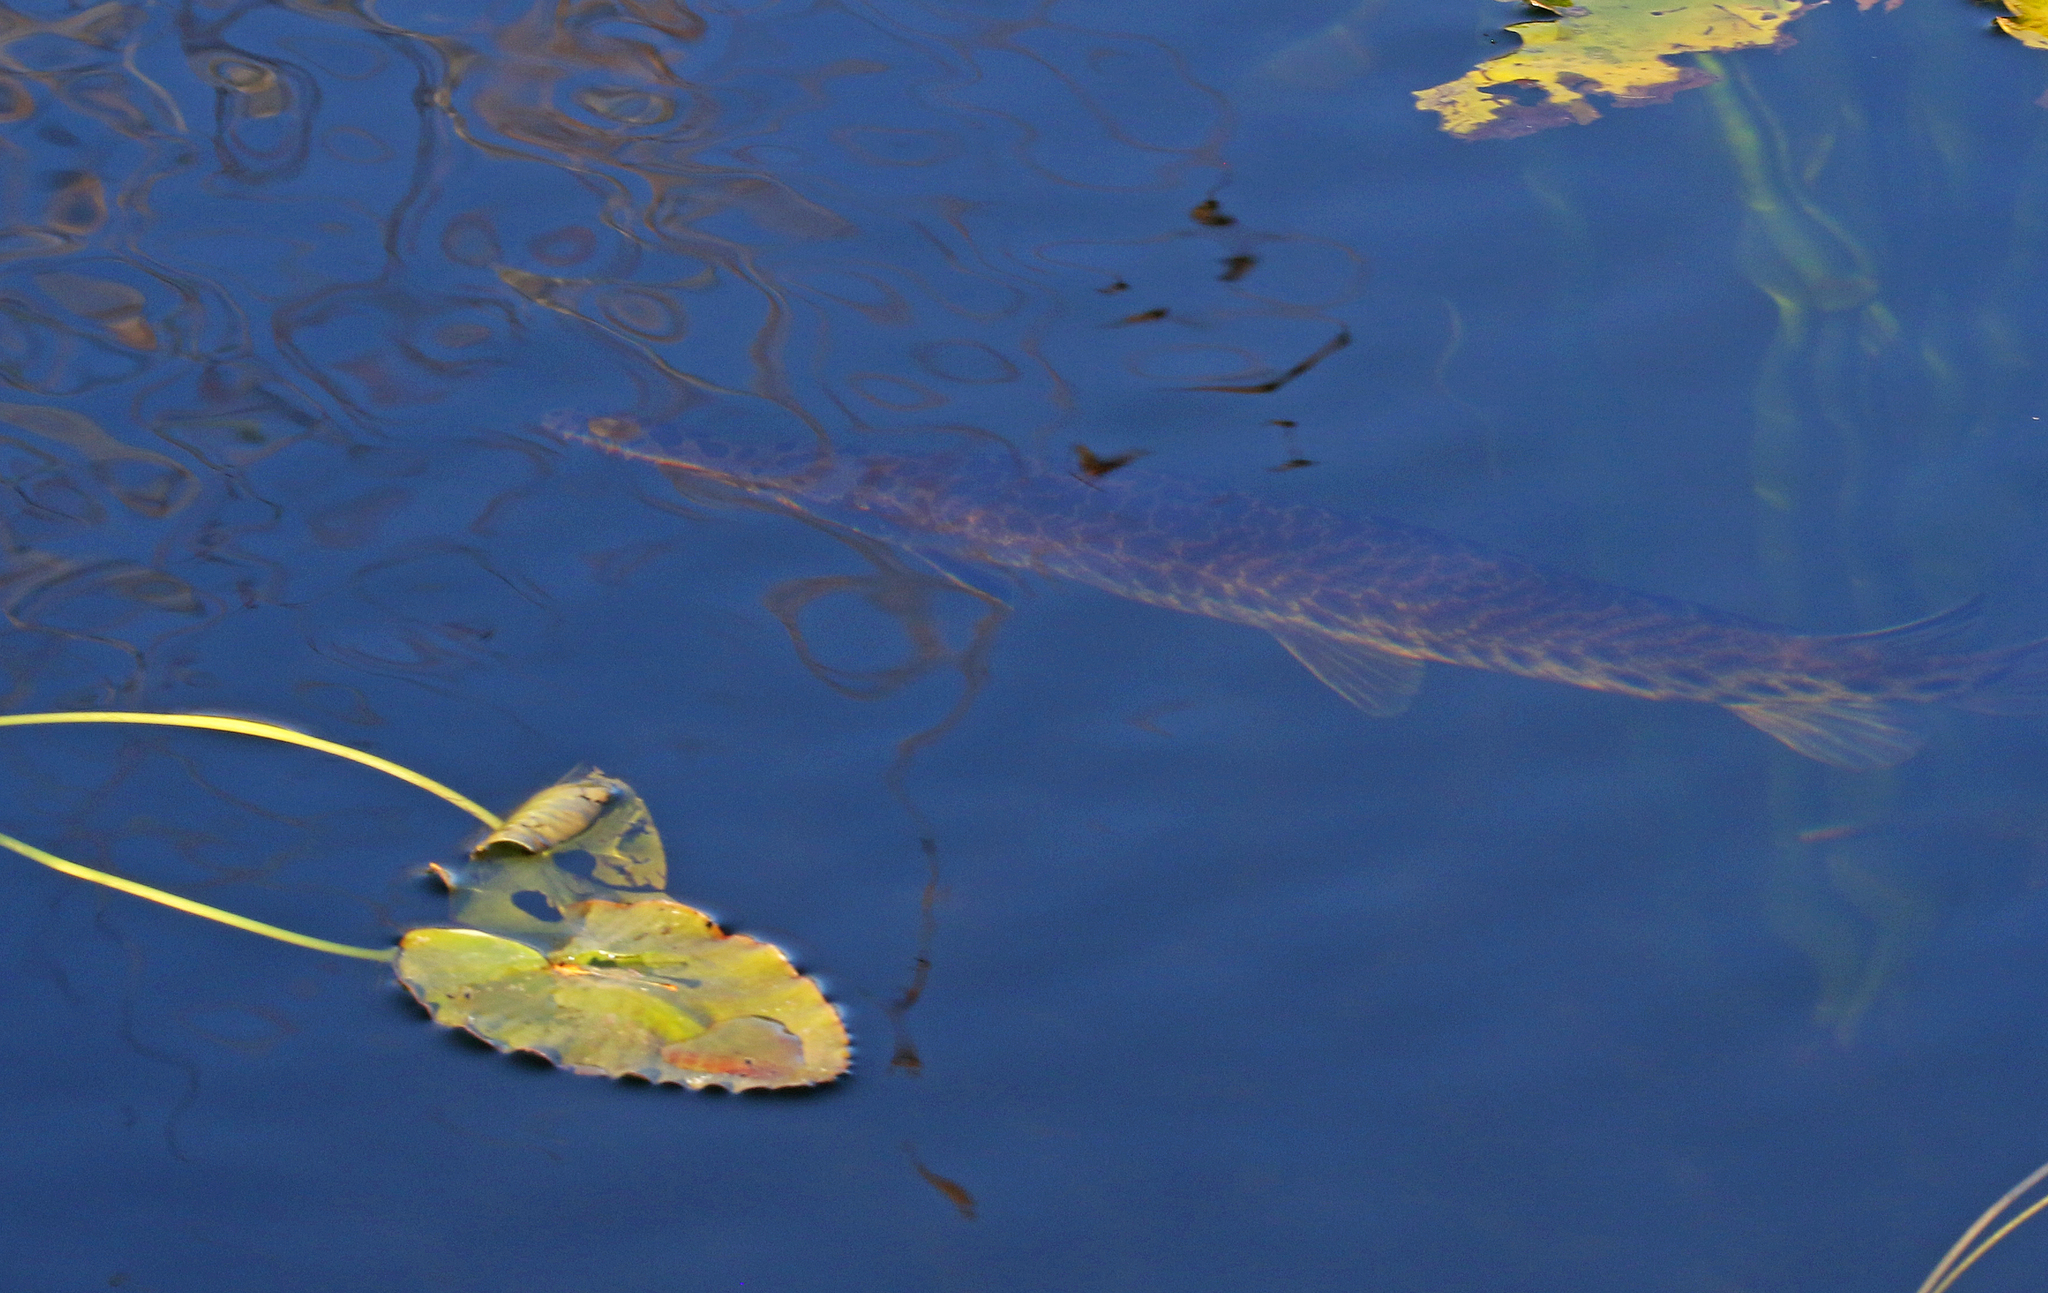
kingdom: Animalia
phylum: Chordata
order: Lepisosteiformes
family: Lepisosteidae
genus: Lepisosteus
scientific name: Lepisosteus platyrhincus
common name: Florida gar
